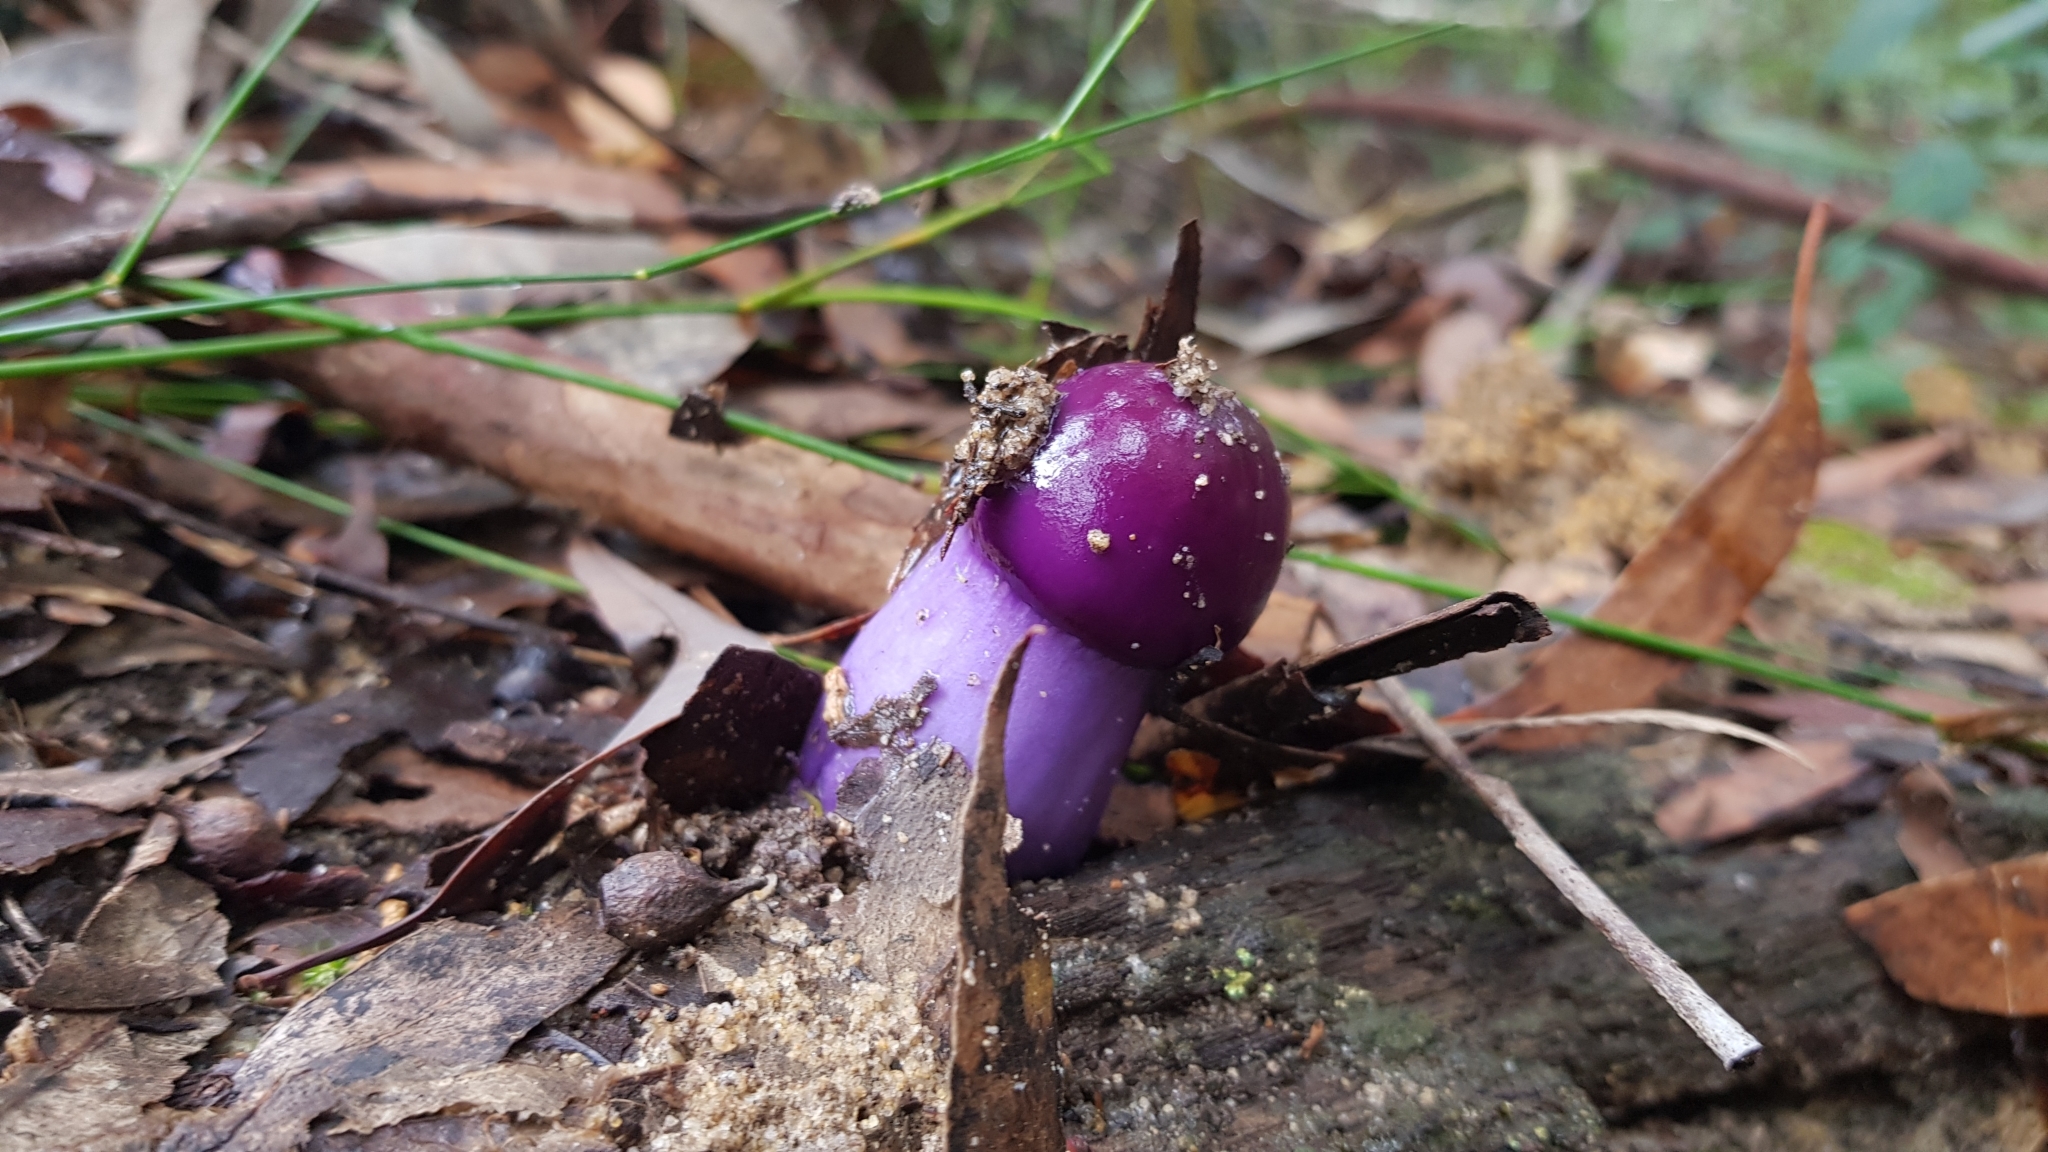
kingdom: Fungi
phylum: Basidiomycota
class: Agaricomycetes
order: Agaricales
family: Cortinariaceae
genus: Cortinarius
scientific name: Cortinarius archeri
